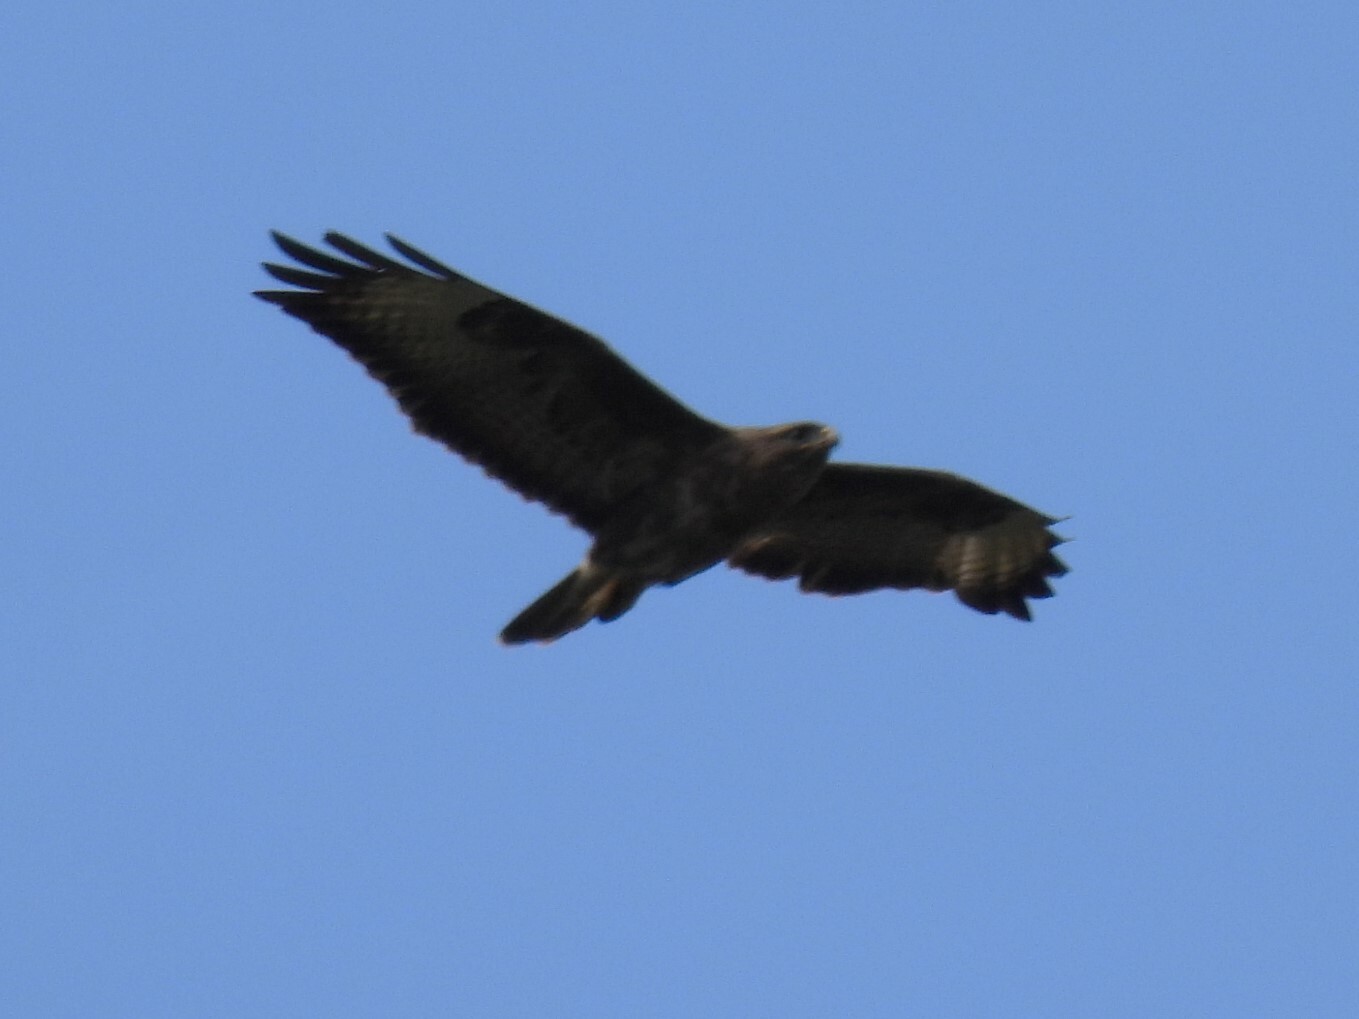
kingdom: Animalia
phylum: Chordata
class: Aves
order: Accipitriformes
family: Accipitridae
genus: Buteo
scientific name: Buteo buteo
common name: Common buzzard
